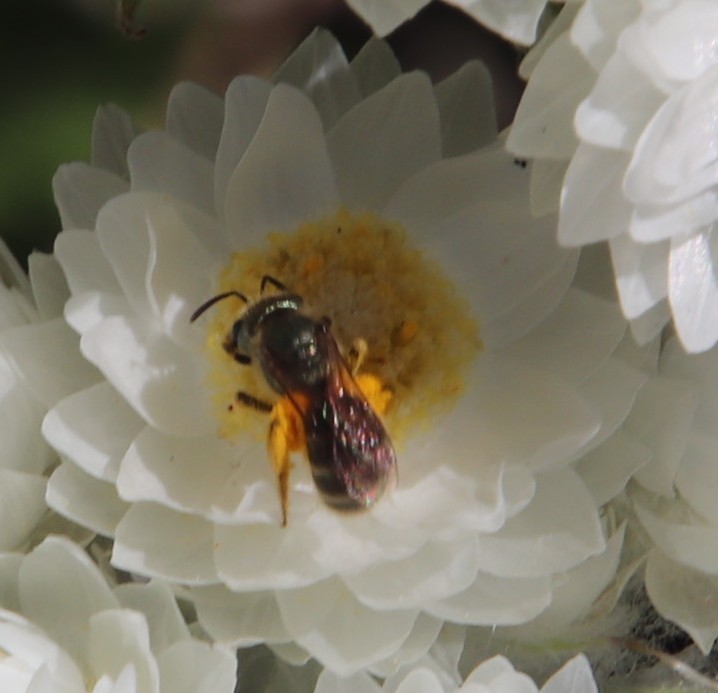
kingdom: Plantae
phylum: Tracheophyta
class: Magnoliopsida
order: Asterales
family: Asteraceae
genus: Helichrysum
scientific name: Helichrysum fruticans
